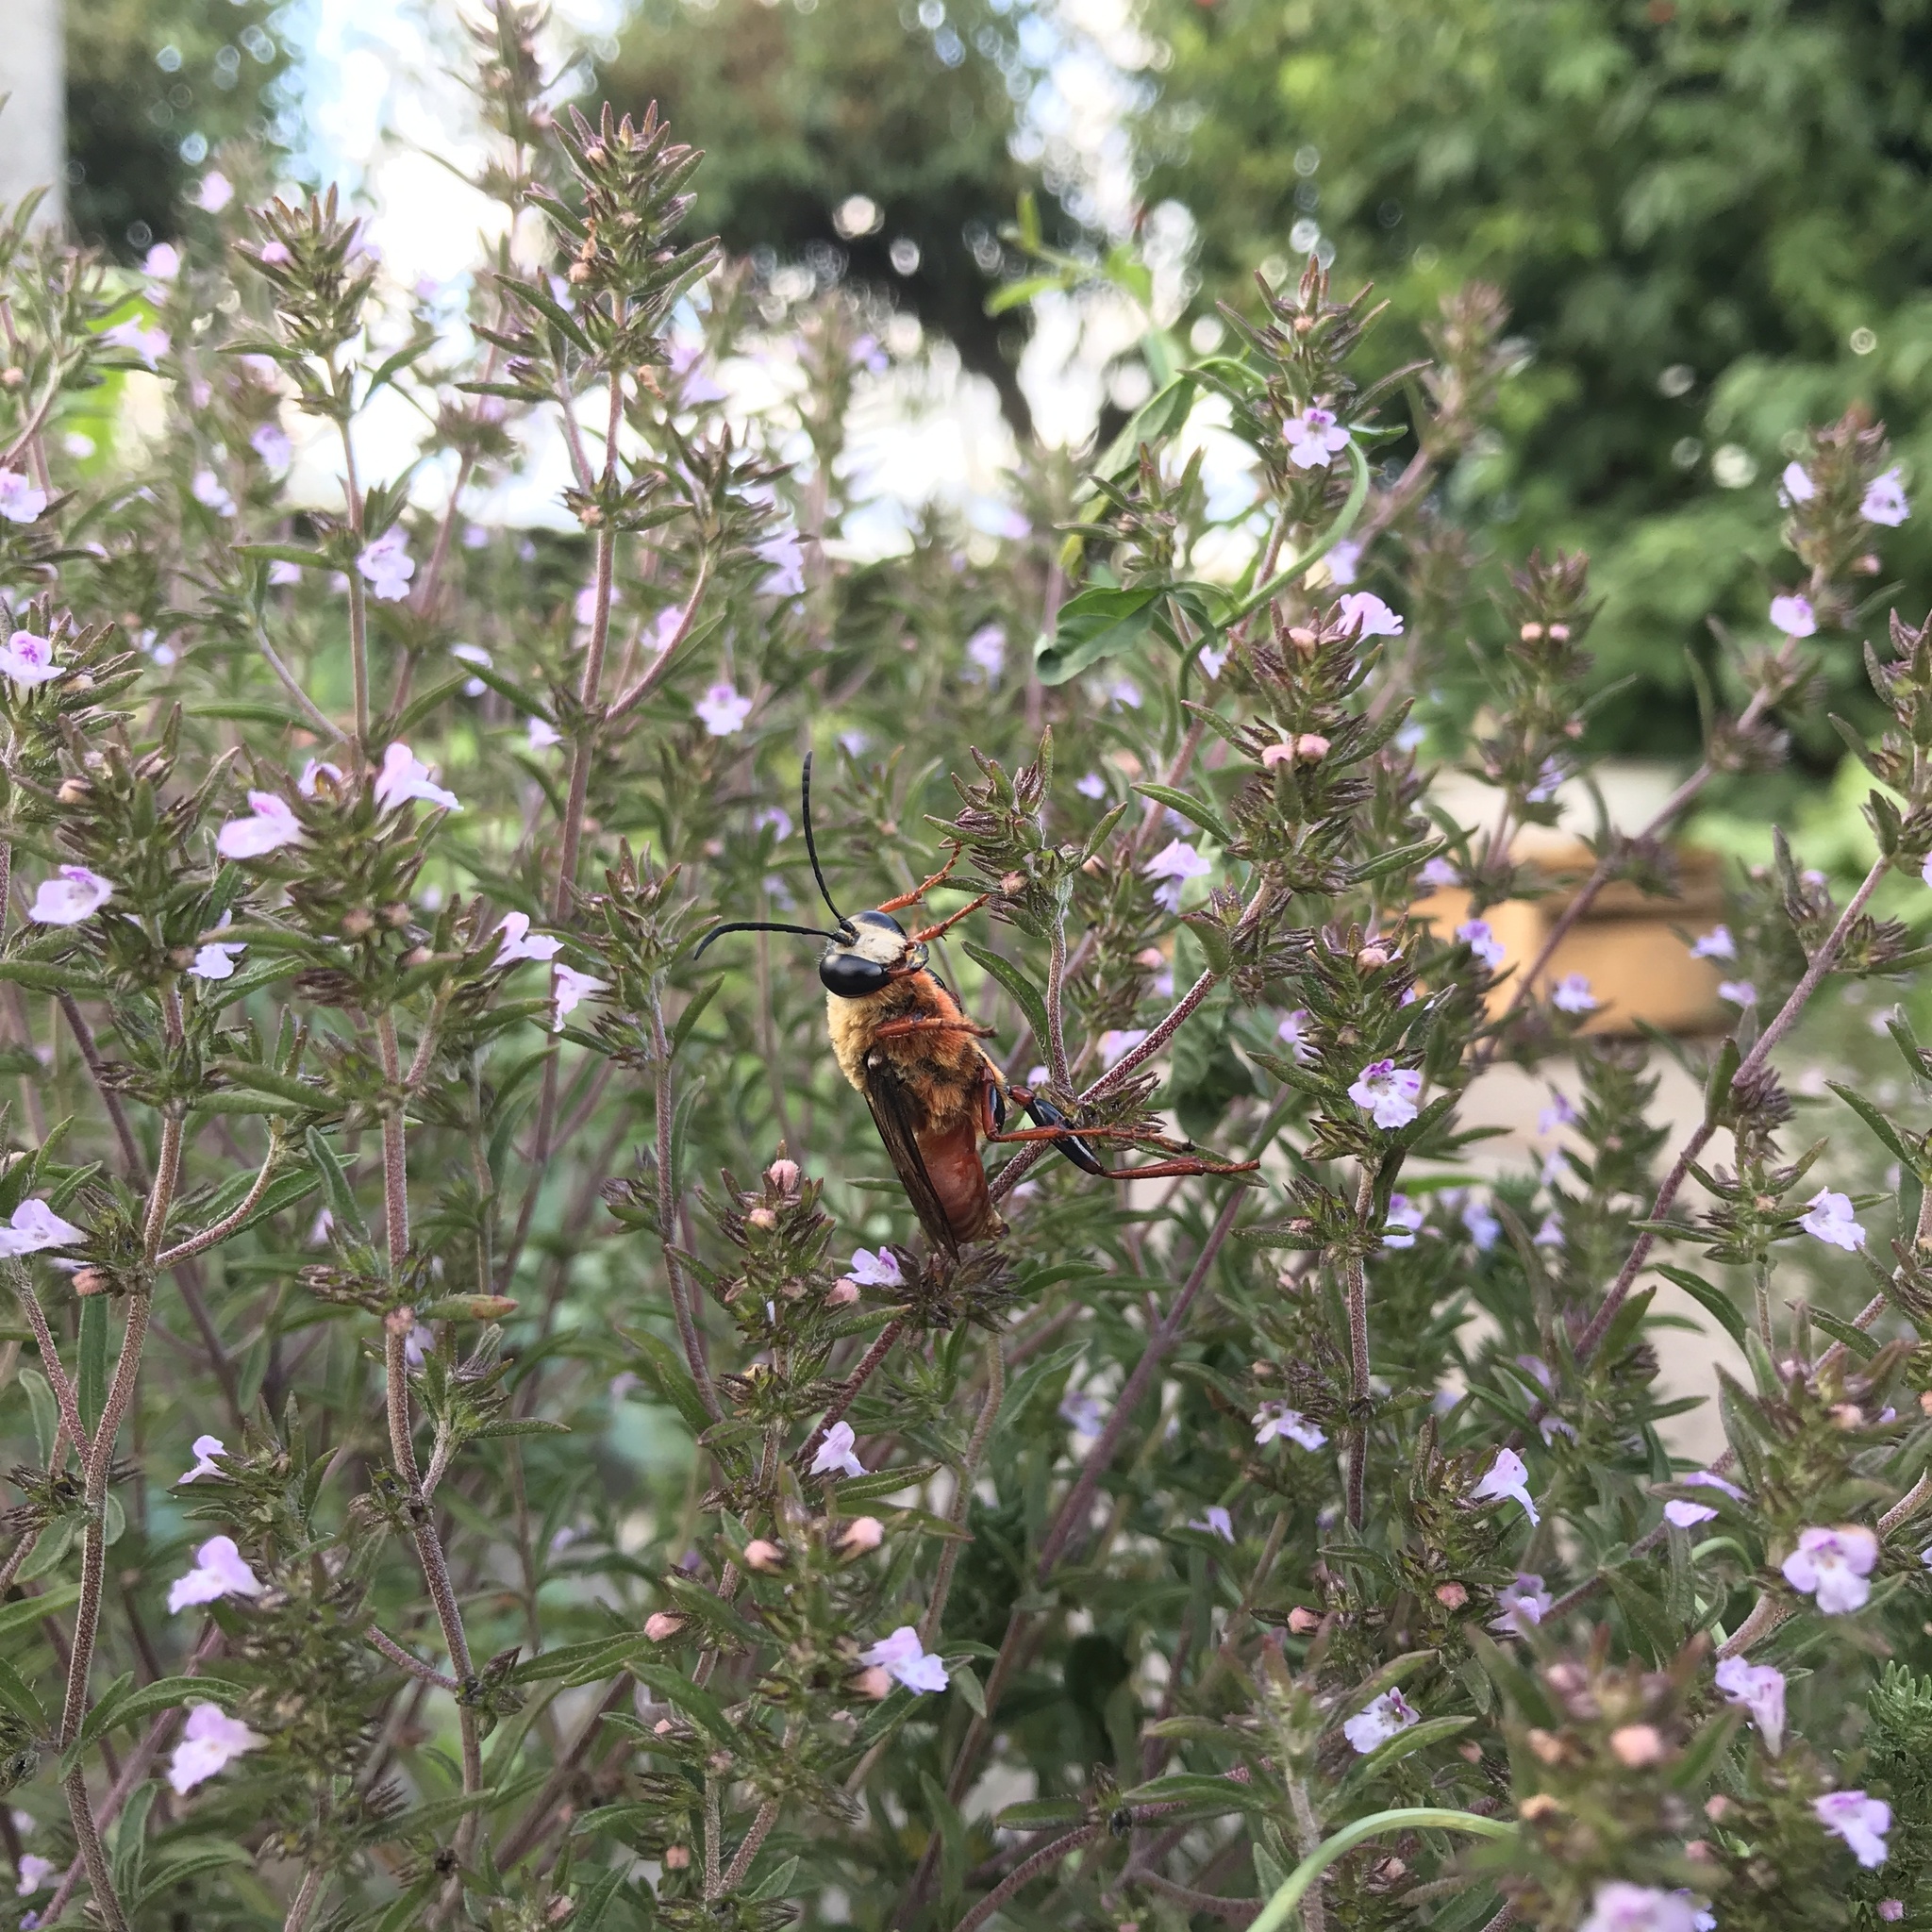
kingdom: Animalia
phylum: Arthropoda
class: Insecta
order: Hymenoptera
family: Sphecidae
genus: Sphex
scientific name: Sphex latreillei
